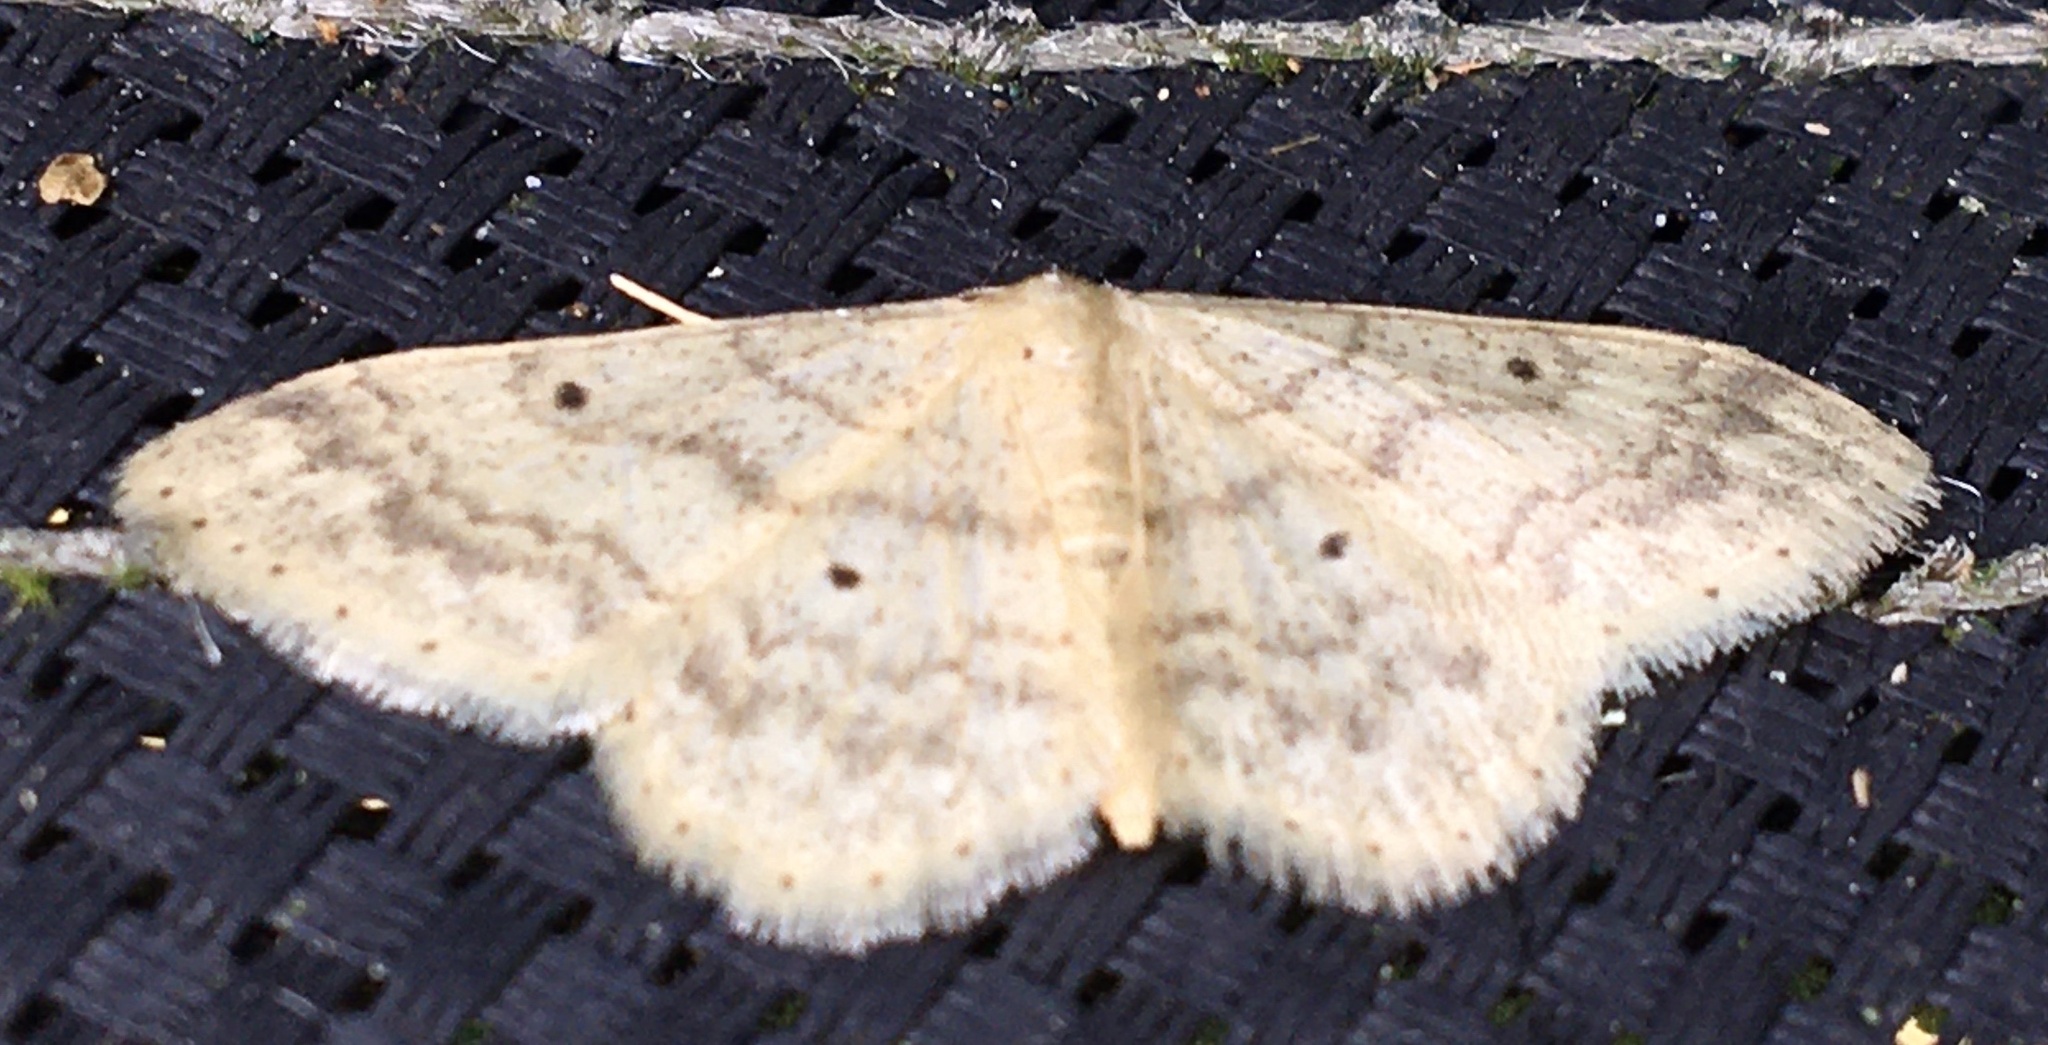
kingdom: Animalia
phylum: Arthropoda
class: Insecta
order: Lepidoptera
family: Geometridae
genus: Idaea
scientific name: Idaea biselata
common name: Small fan-footed wave
